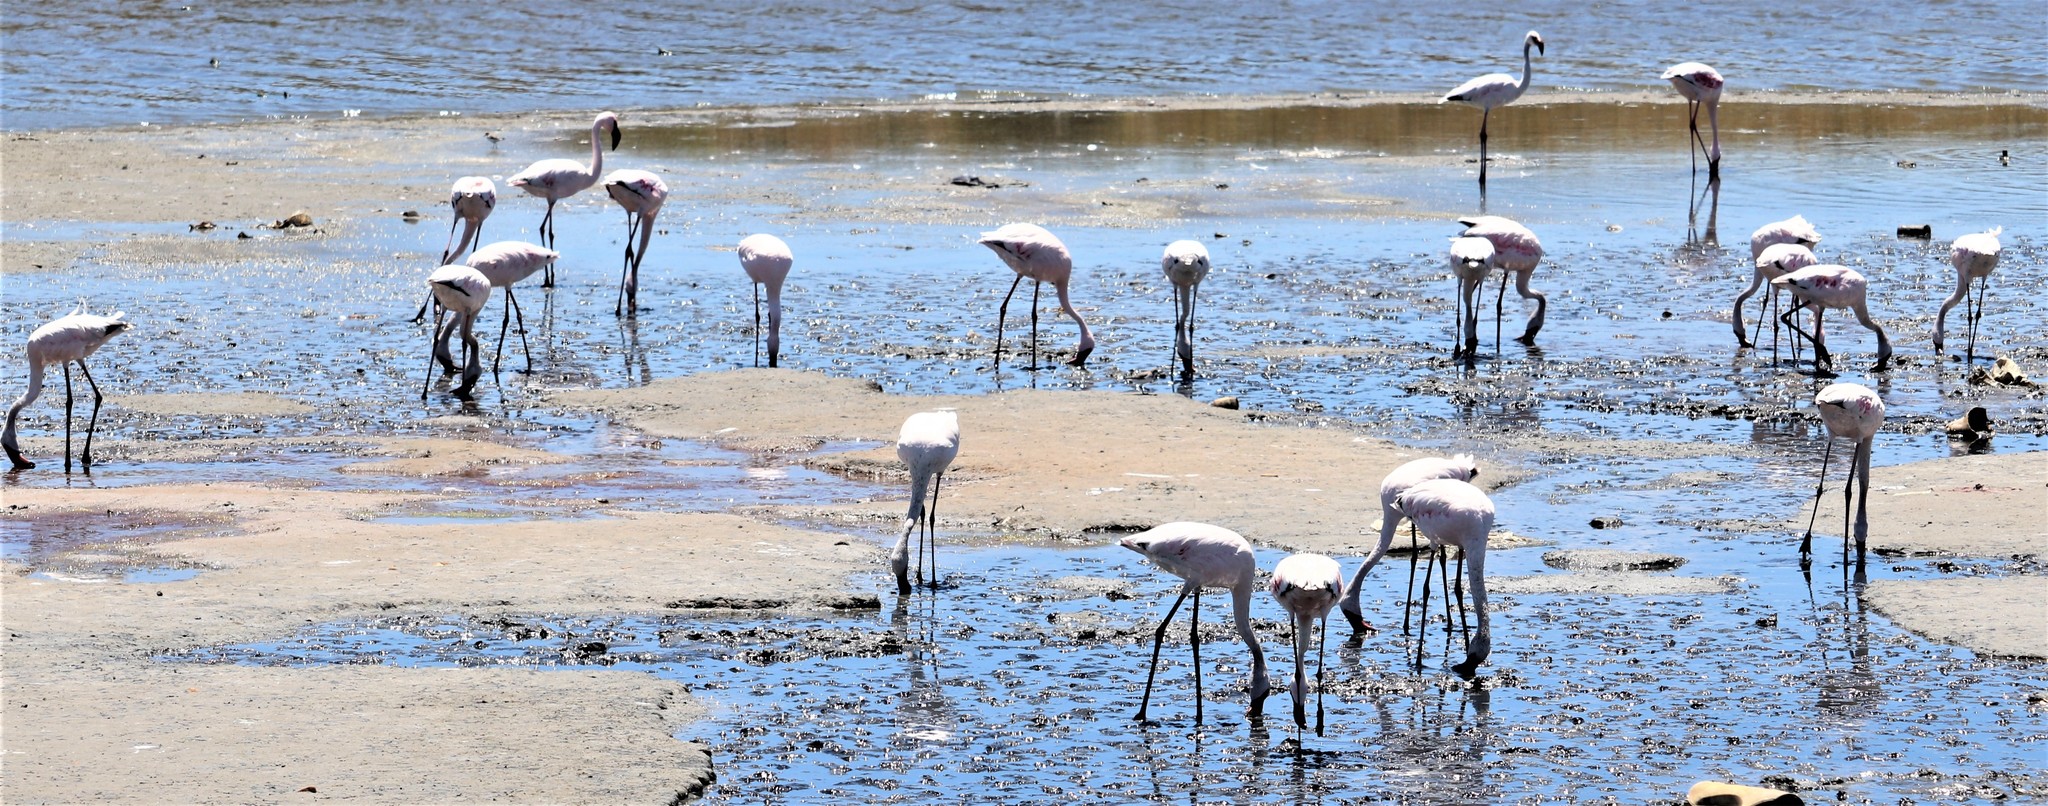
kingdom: Animalia
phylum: Chordata
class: Aves
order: Phoenicopteriformes
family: Phoenicopteridae
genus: Phoeniconaias
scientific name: Phoeniconaias minor
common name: Lesser flamingo
